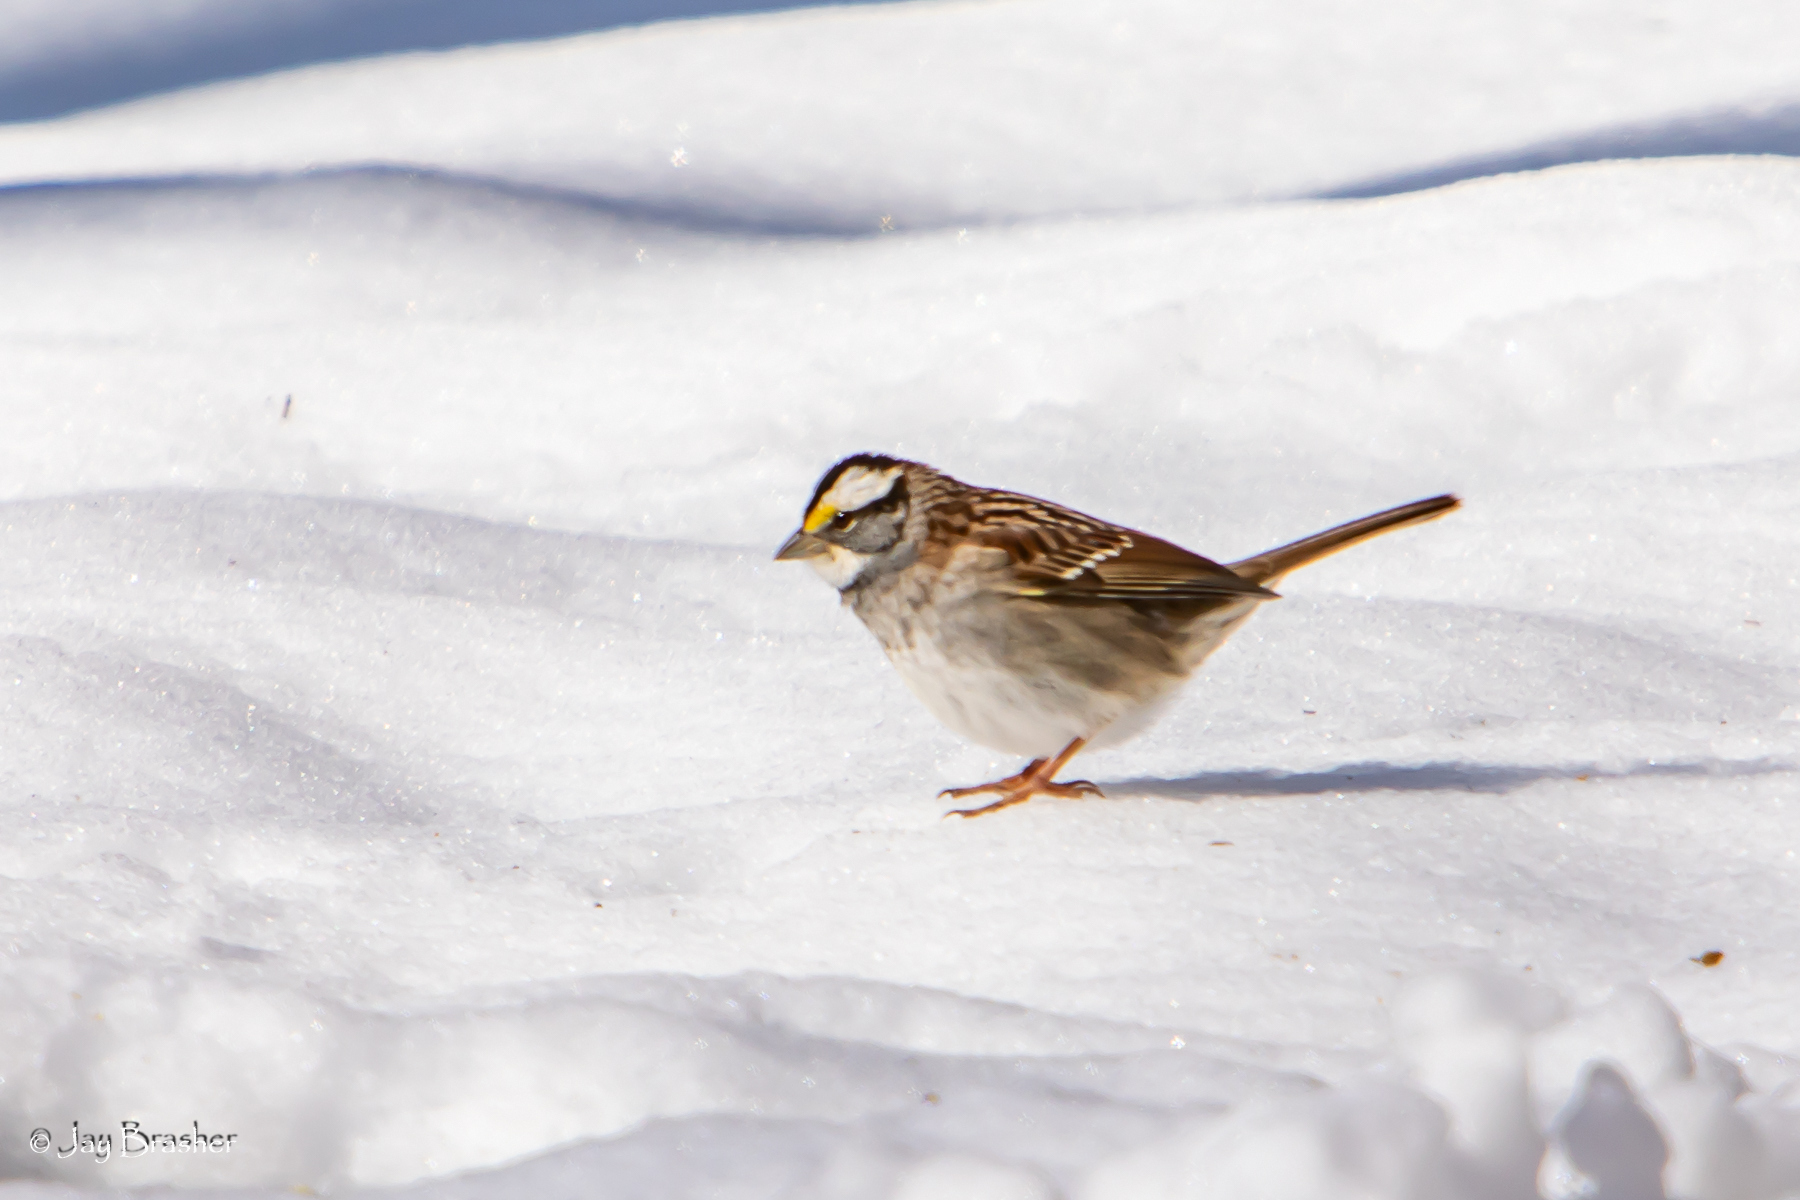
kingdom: Animalia
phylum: Chordata
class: Aves
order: Passeriformes
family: Passerellidae
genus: Zonotrichia
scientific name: Zonotrichia albicollis
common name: White-throated sparrow
